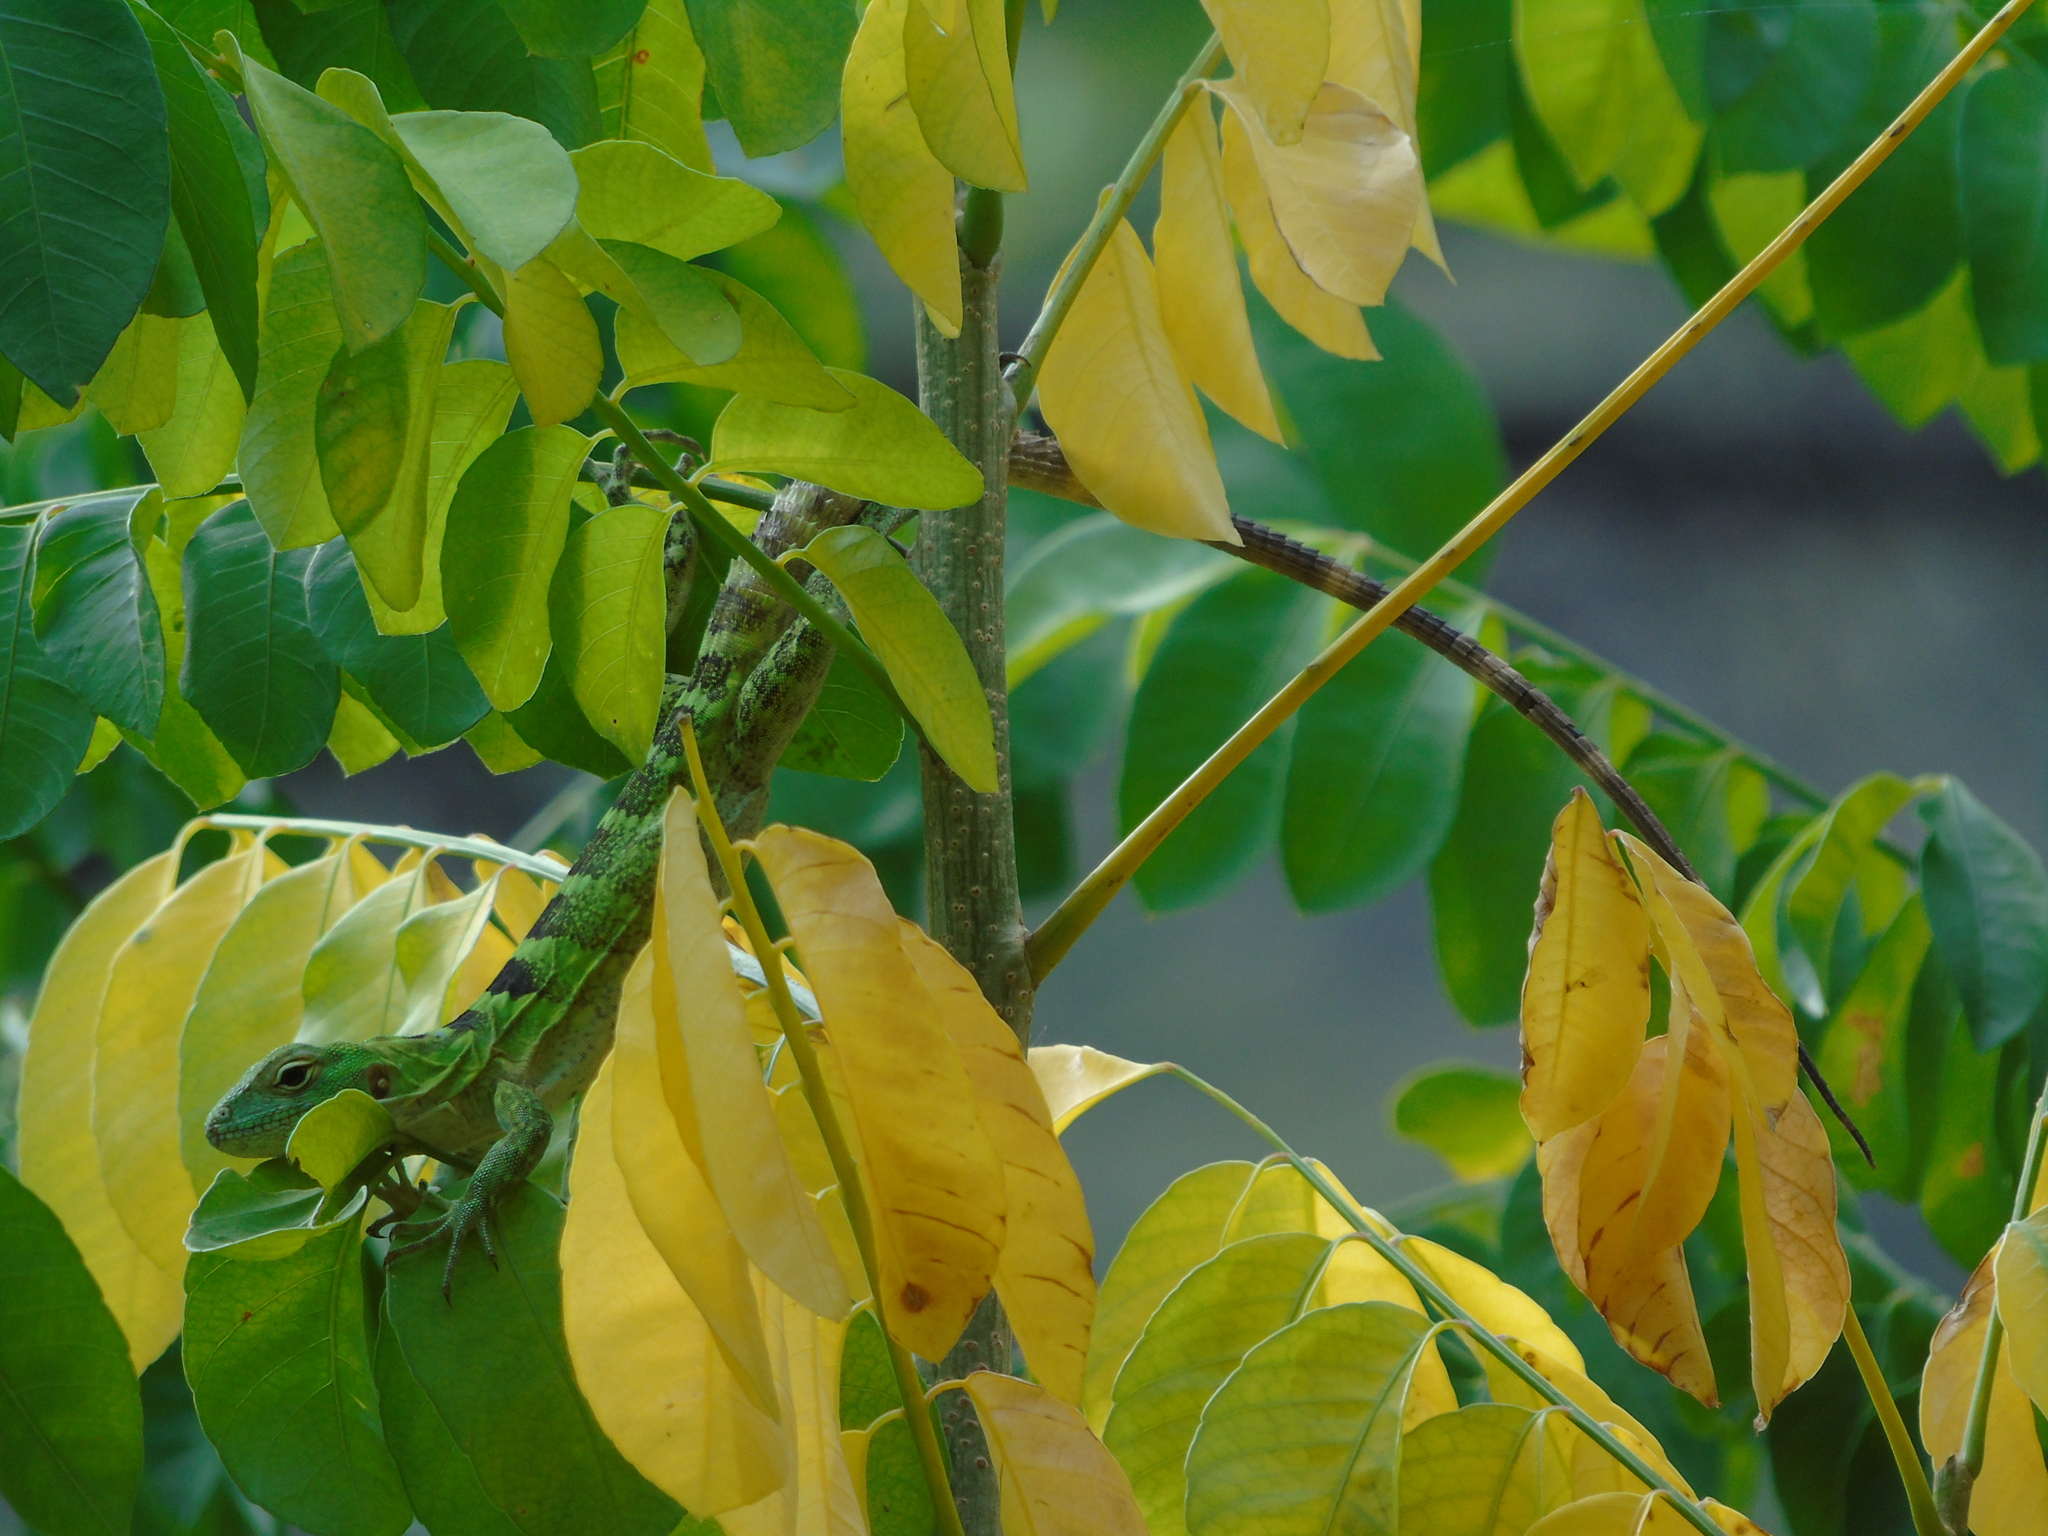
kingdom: Animalia
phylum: Chordata
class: Squamata
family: Iguanidae
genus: Ctenosaura
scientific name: Ctenosaura hemilopha
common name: Baja california spiny- tailed iguana
